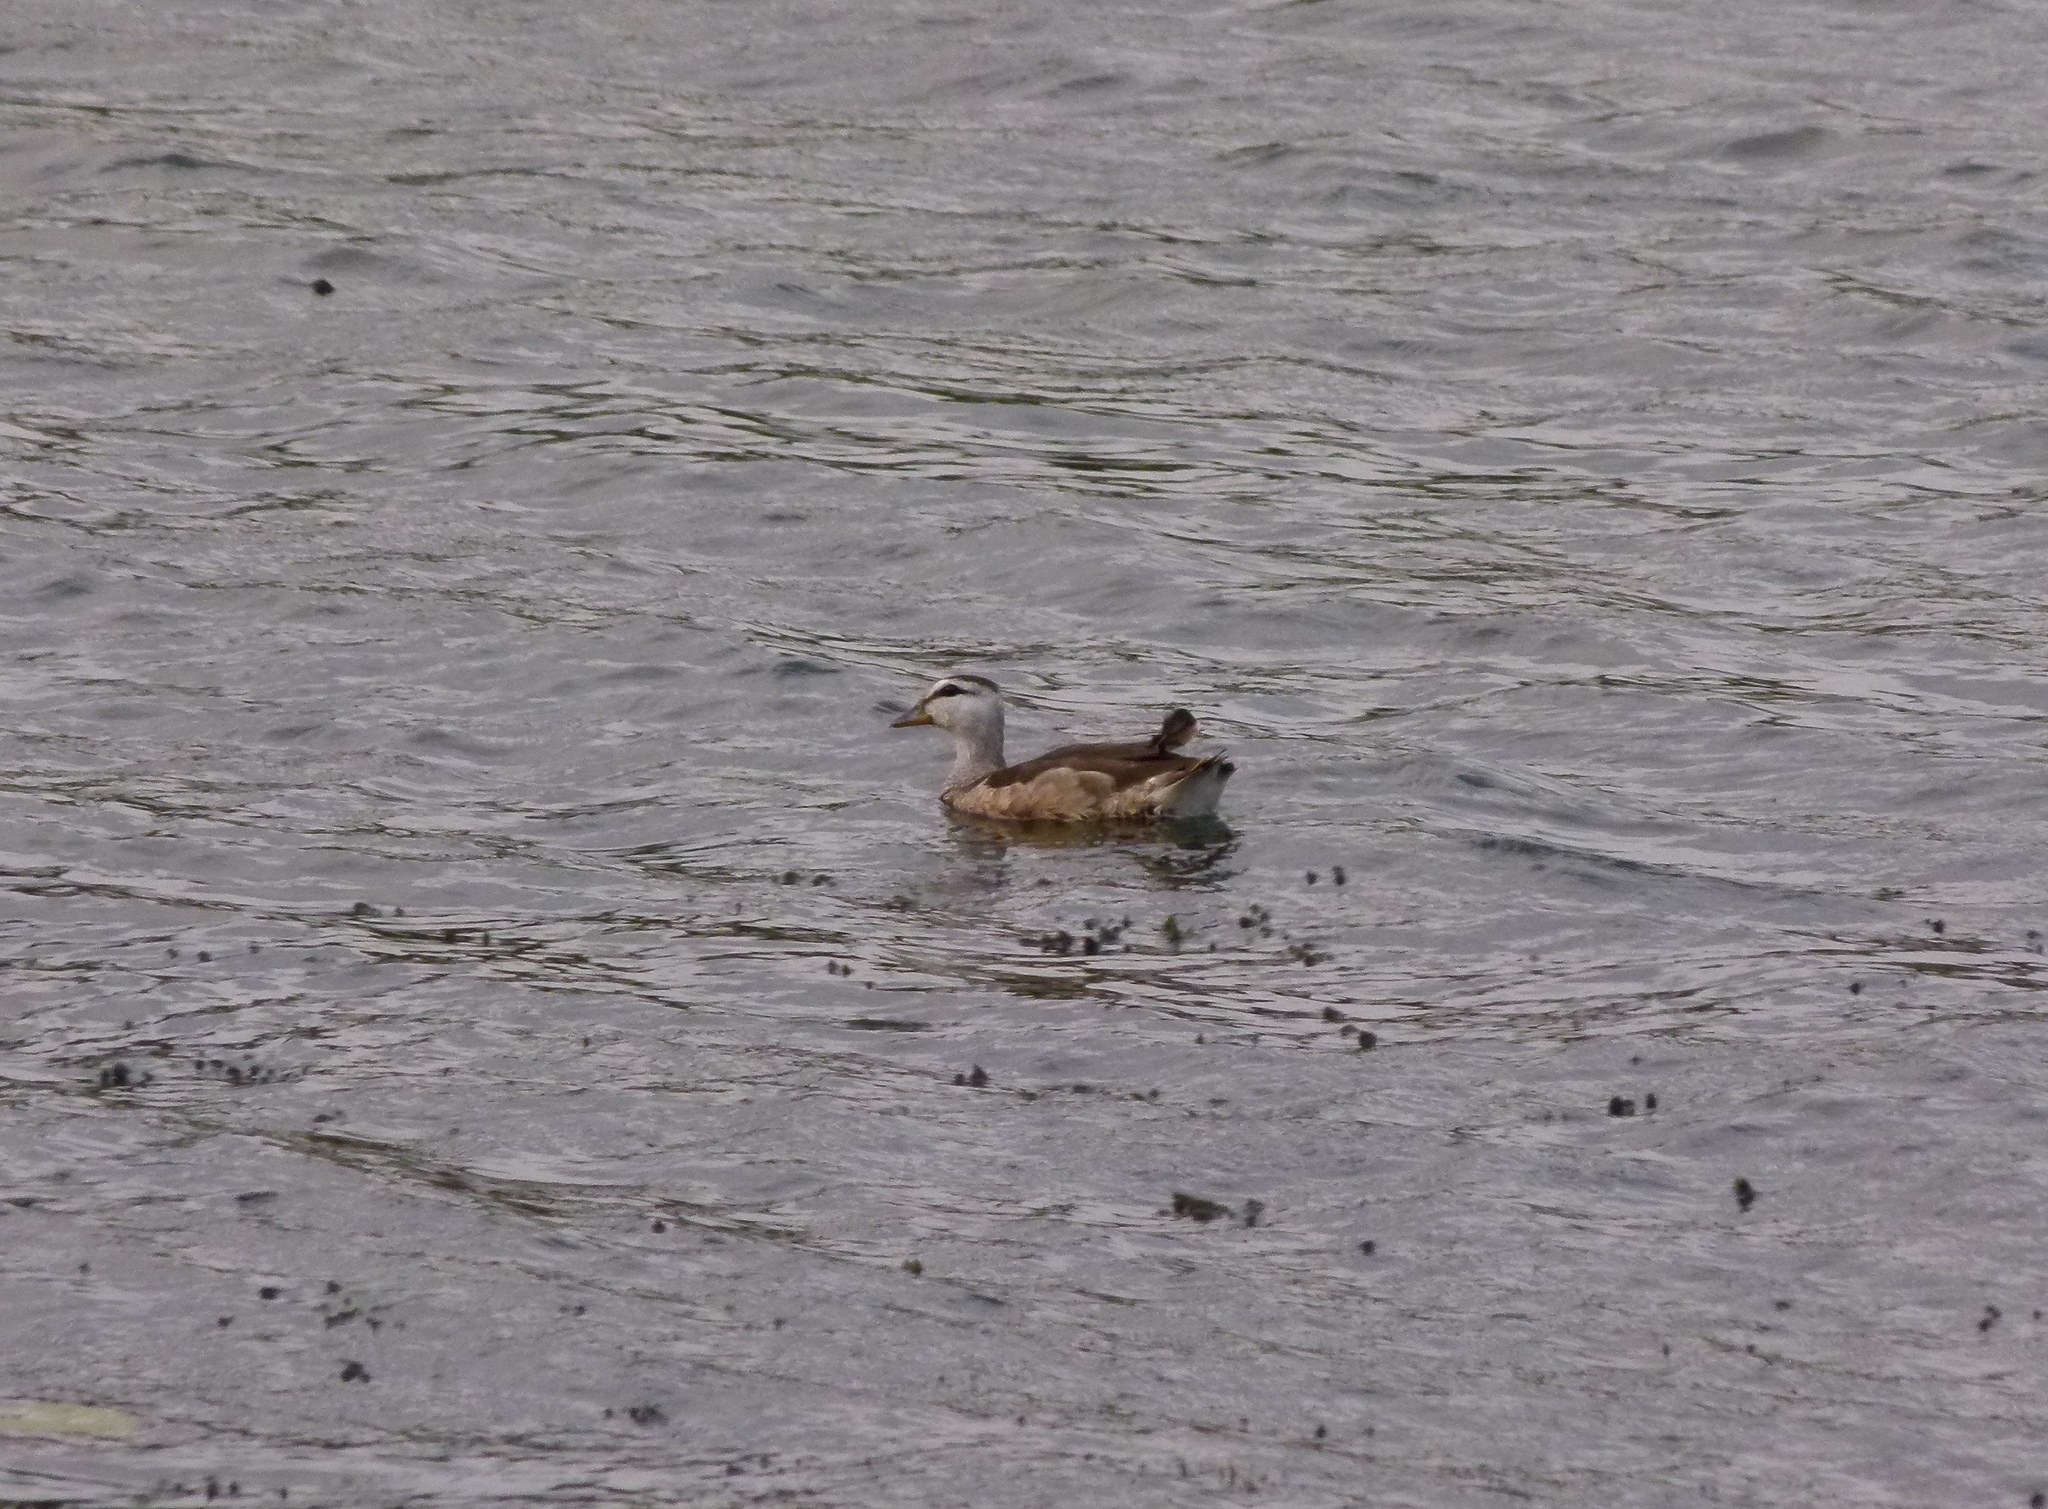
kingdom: Animalia
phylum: Chordata
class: Aves
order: Anseriformes
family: Anatidae
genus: Nettapus
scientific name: Nettapus coromandelianus
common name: Cotton pygmy-goose
